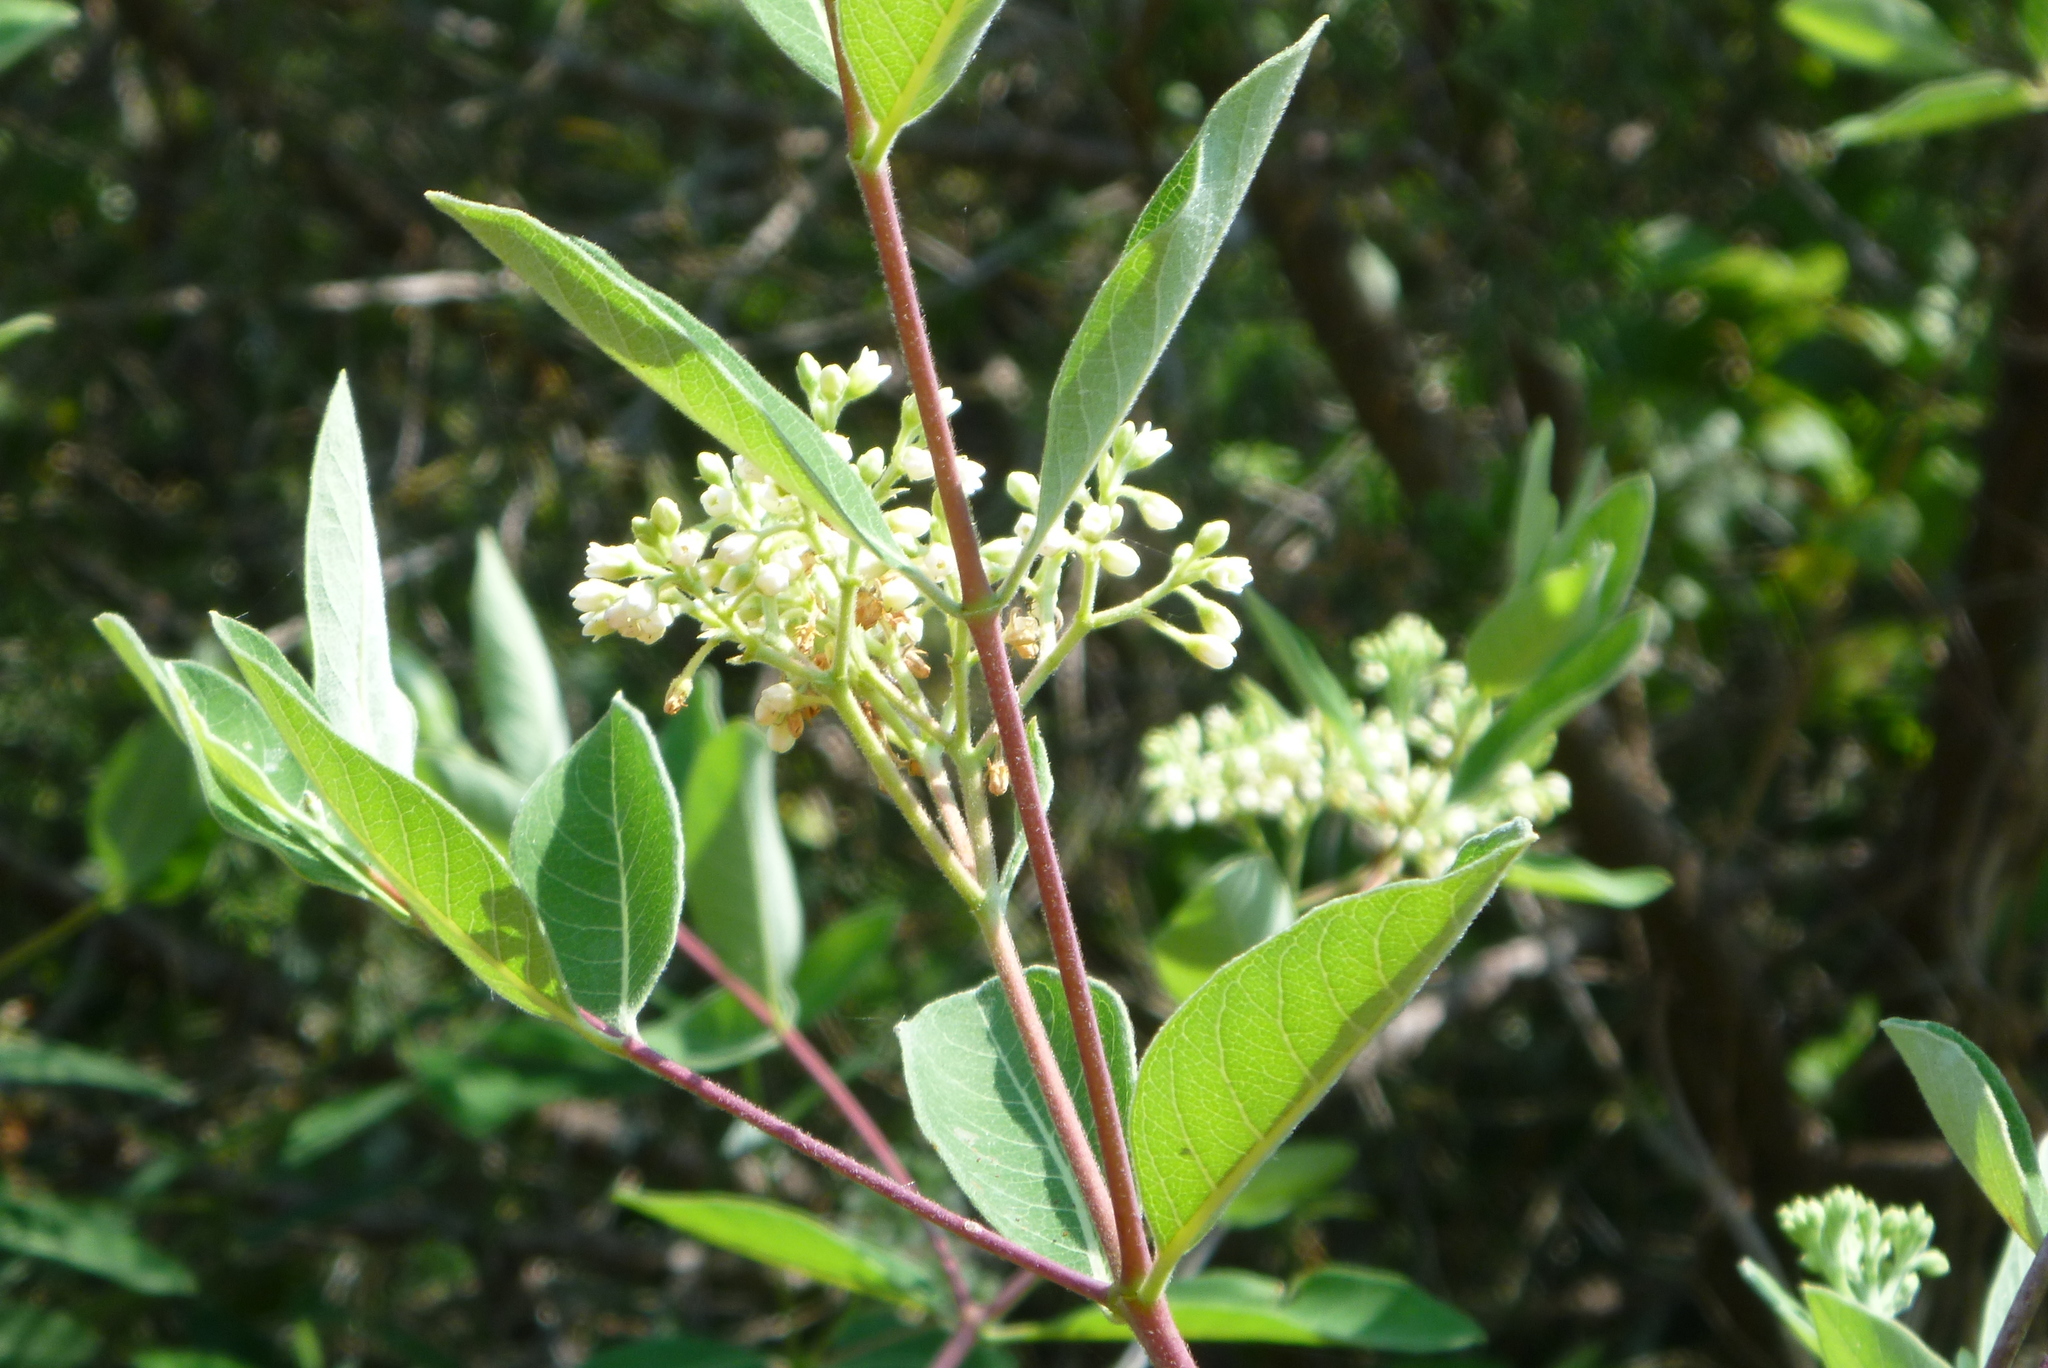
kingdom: Plantae
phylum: Tracheophyta
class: Magnoliopsida
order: Gentianales
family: Apocynaceae
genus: Apocynum
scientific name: Apocynum cannabinum
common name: Hemp dogbane
